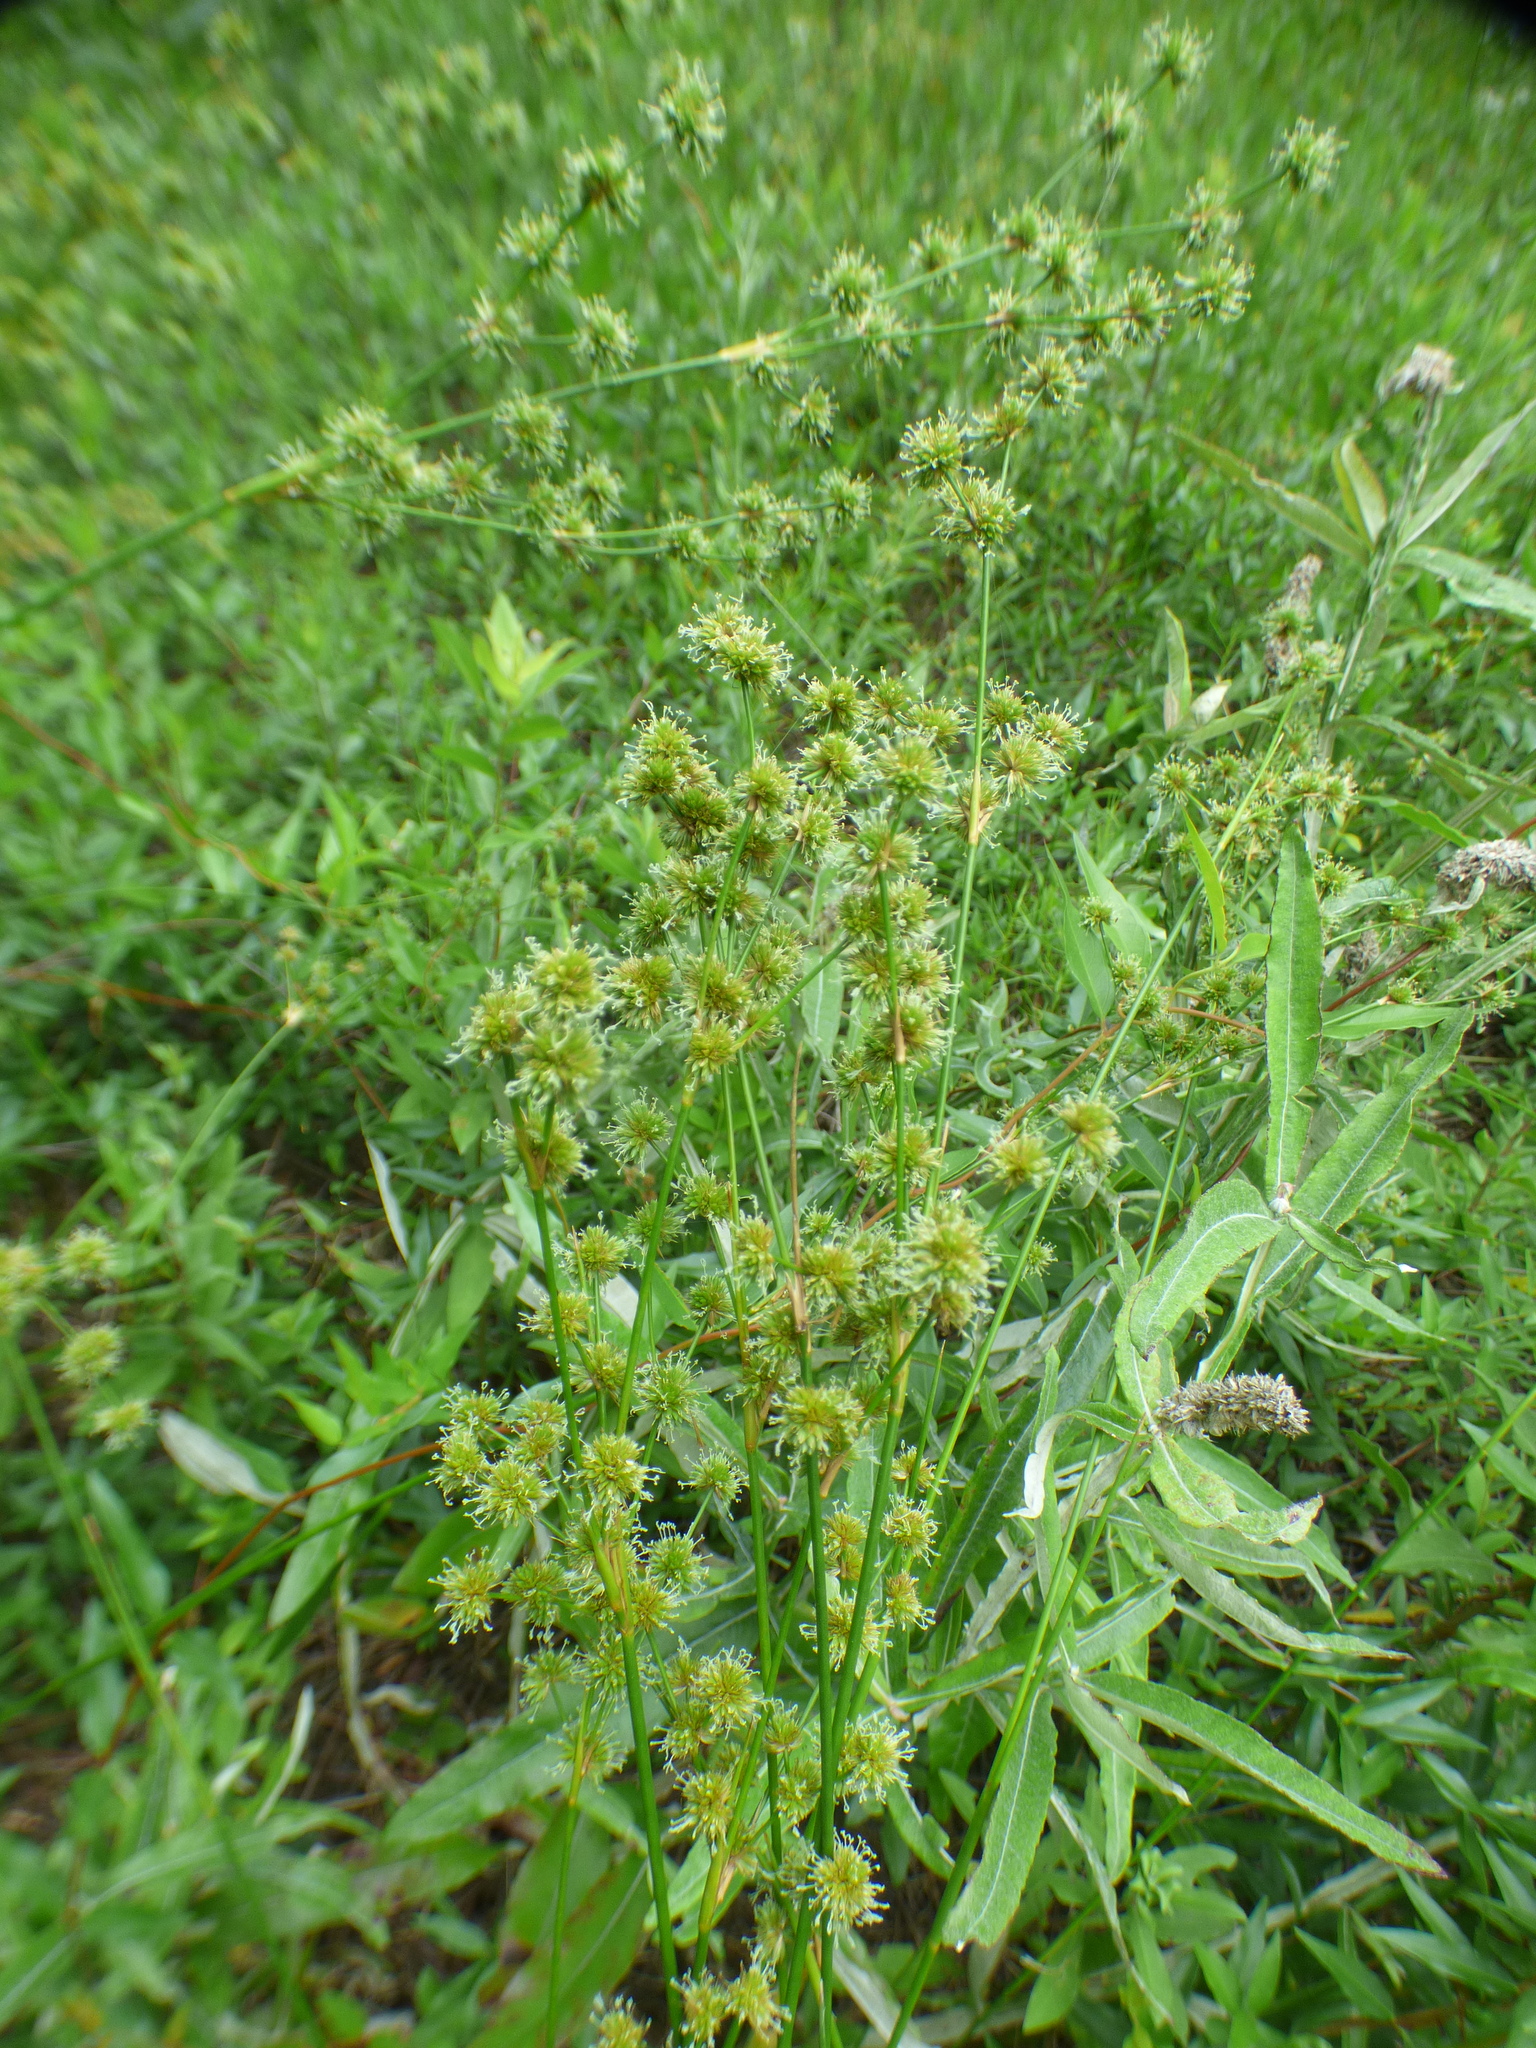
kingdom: Plantae
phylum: Tracheophyta
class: Liliopsida
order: Poales
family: Juncaceae
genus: Juncus
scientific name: Juncus scirpoides
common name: Needlepod rush
